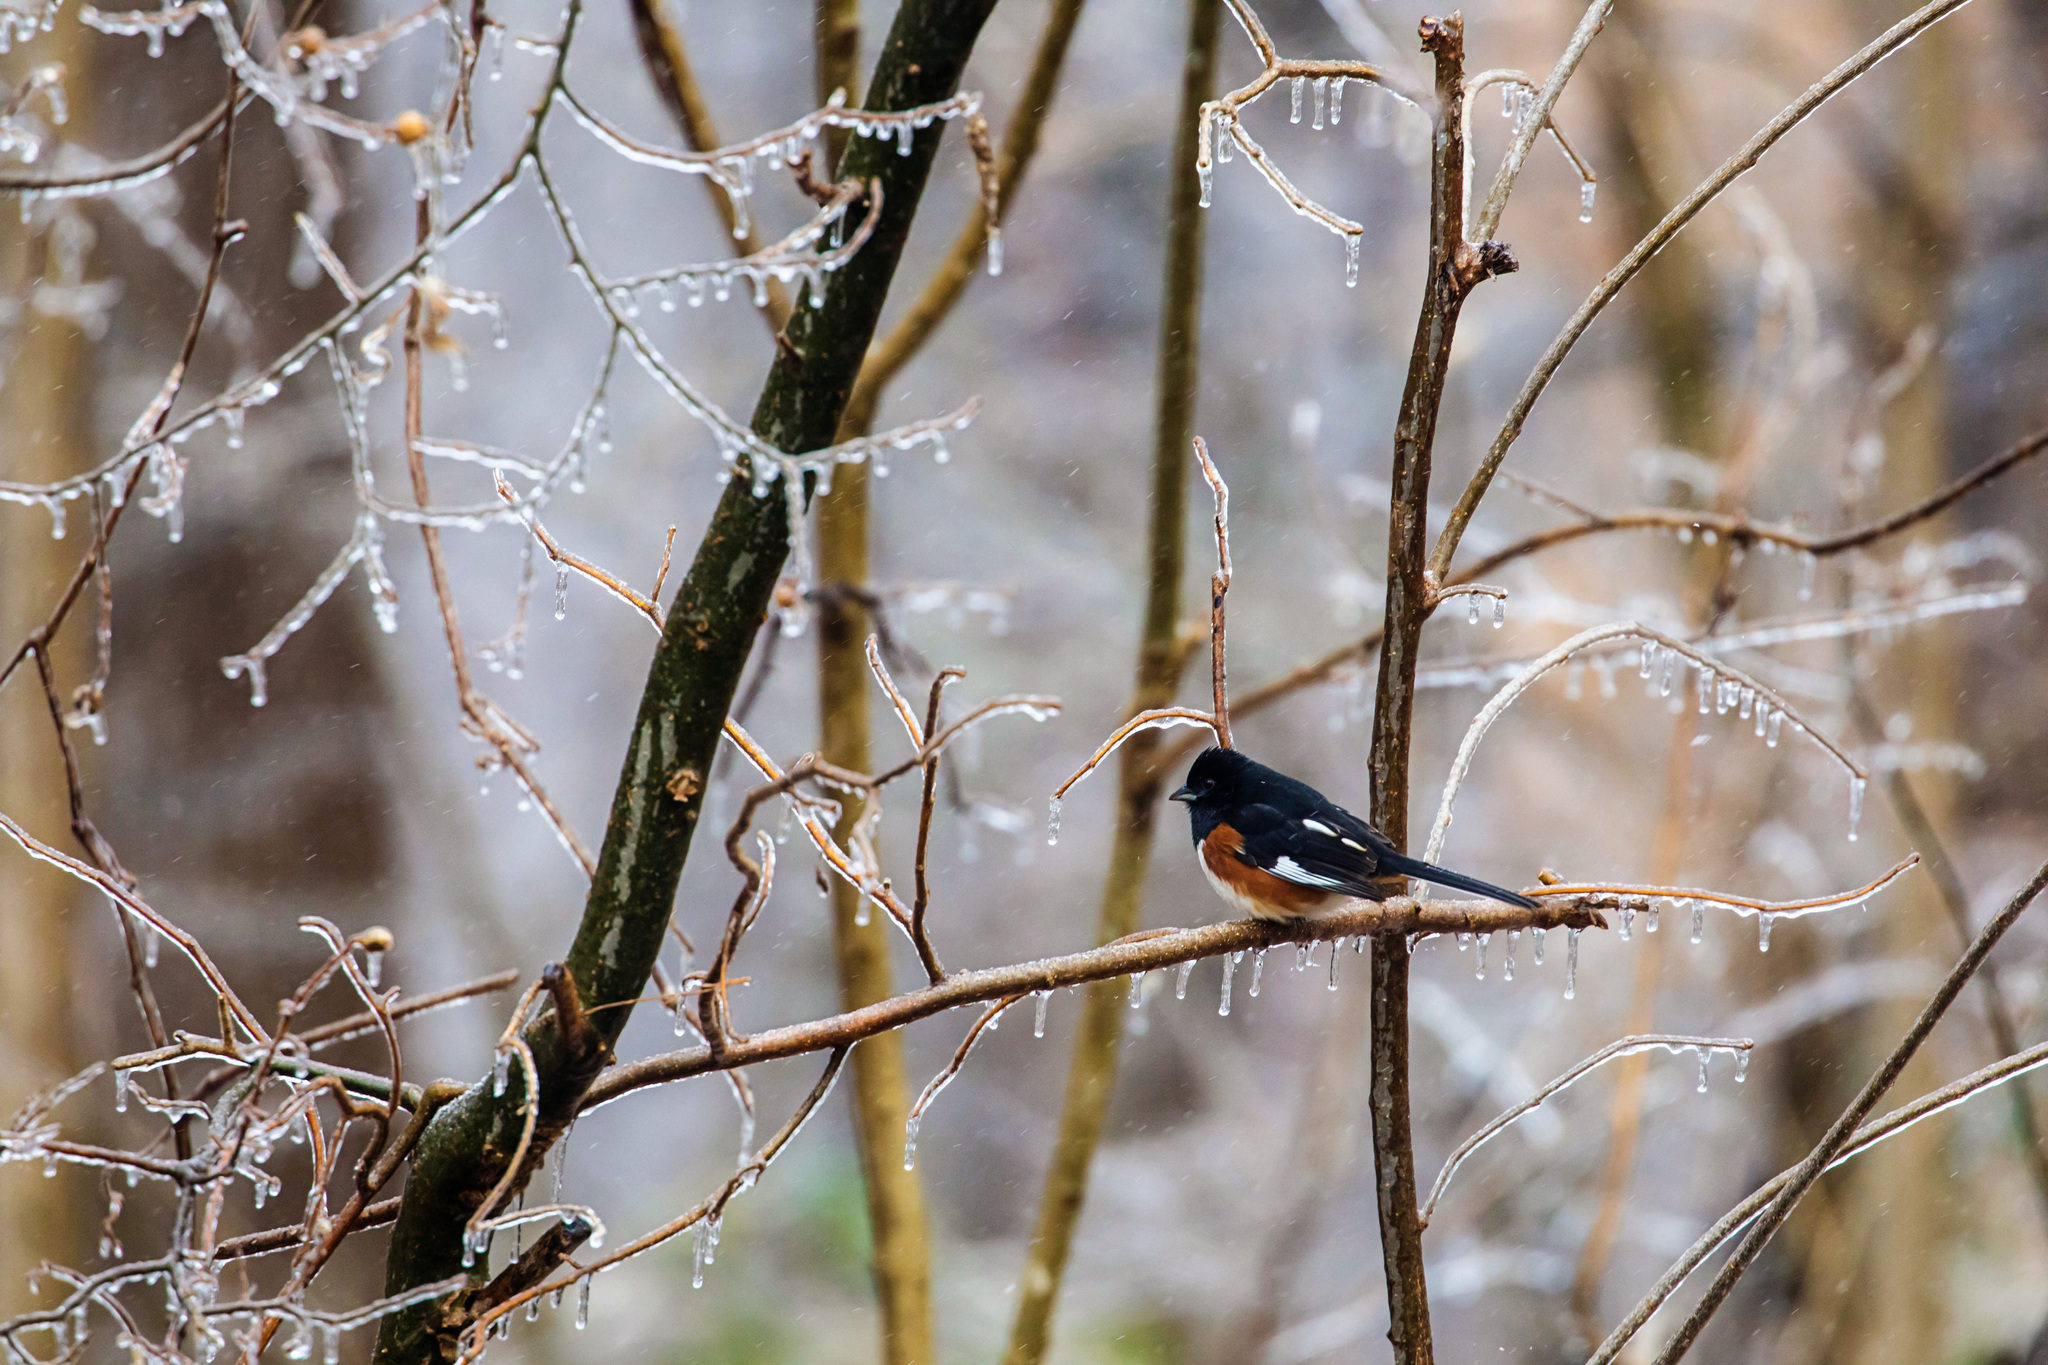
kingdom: Animalia
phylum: Chordata
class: Aves
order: Passeriformes
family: Passerellidae
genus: Pipilo
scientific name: Pipilo erythrophthalmus
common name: Eastern towhee
